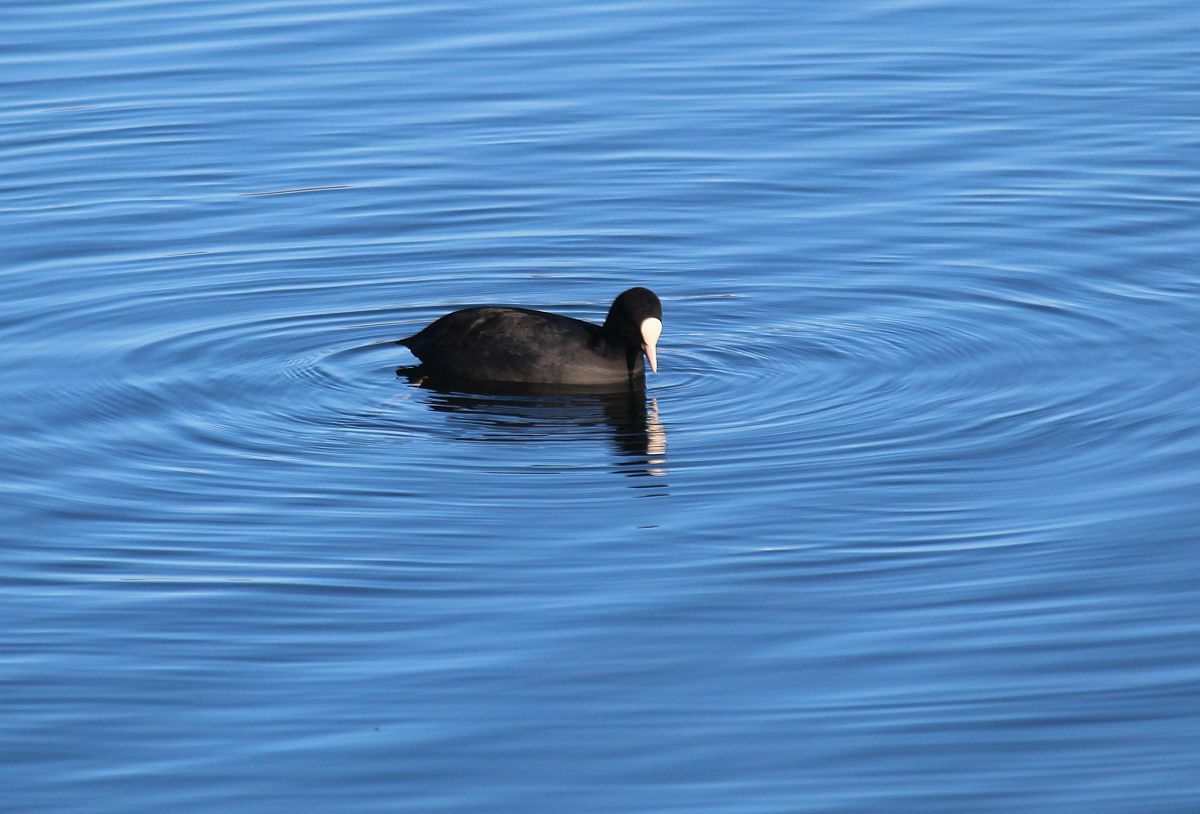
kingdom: Animalia
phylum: Chordata
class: Aves
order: Gruiformes
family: Rallidae
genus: Fulica
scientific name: Fulica atra
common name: Eurasian coot
